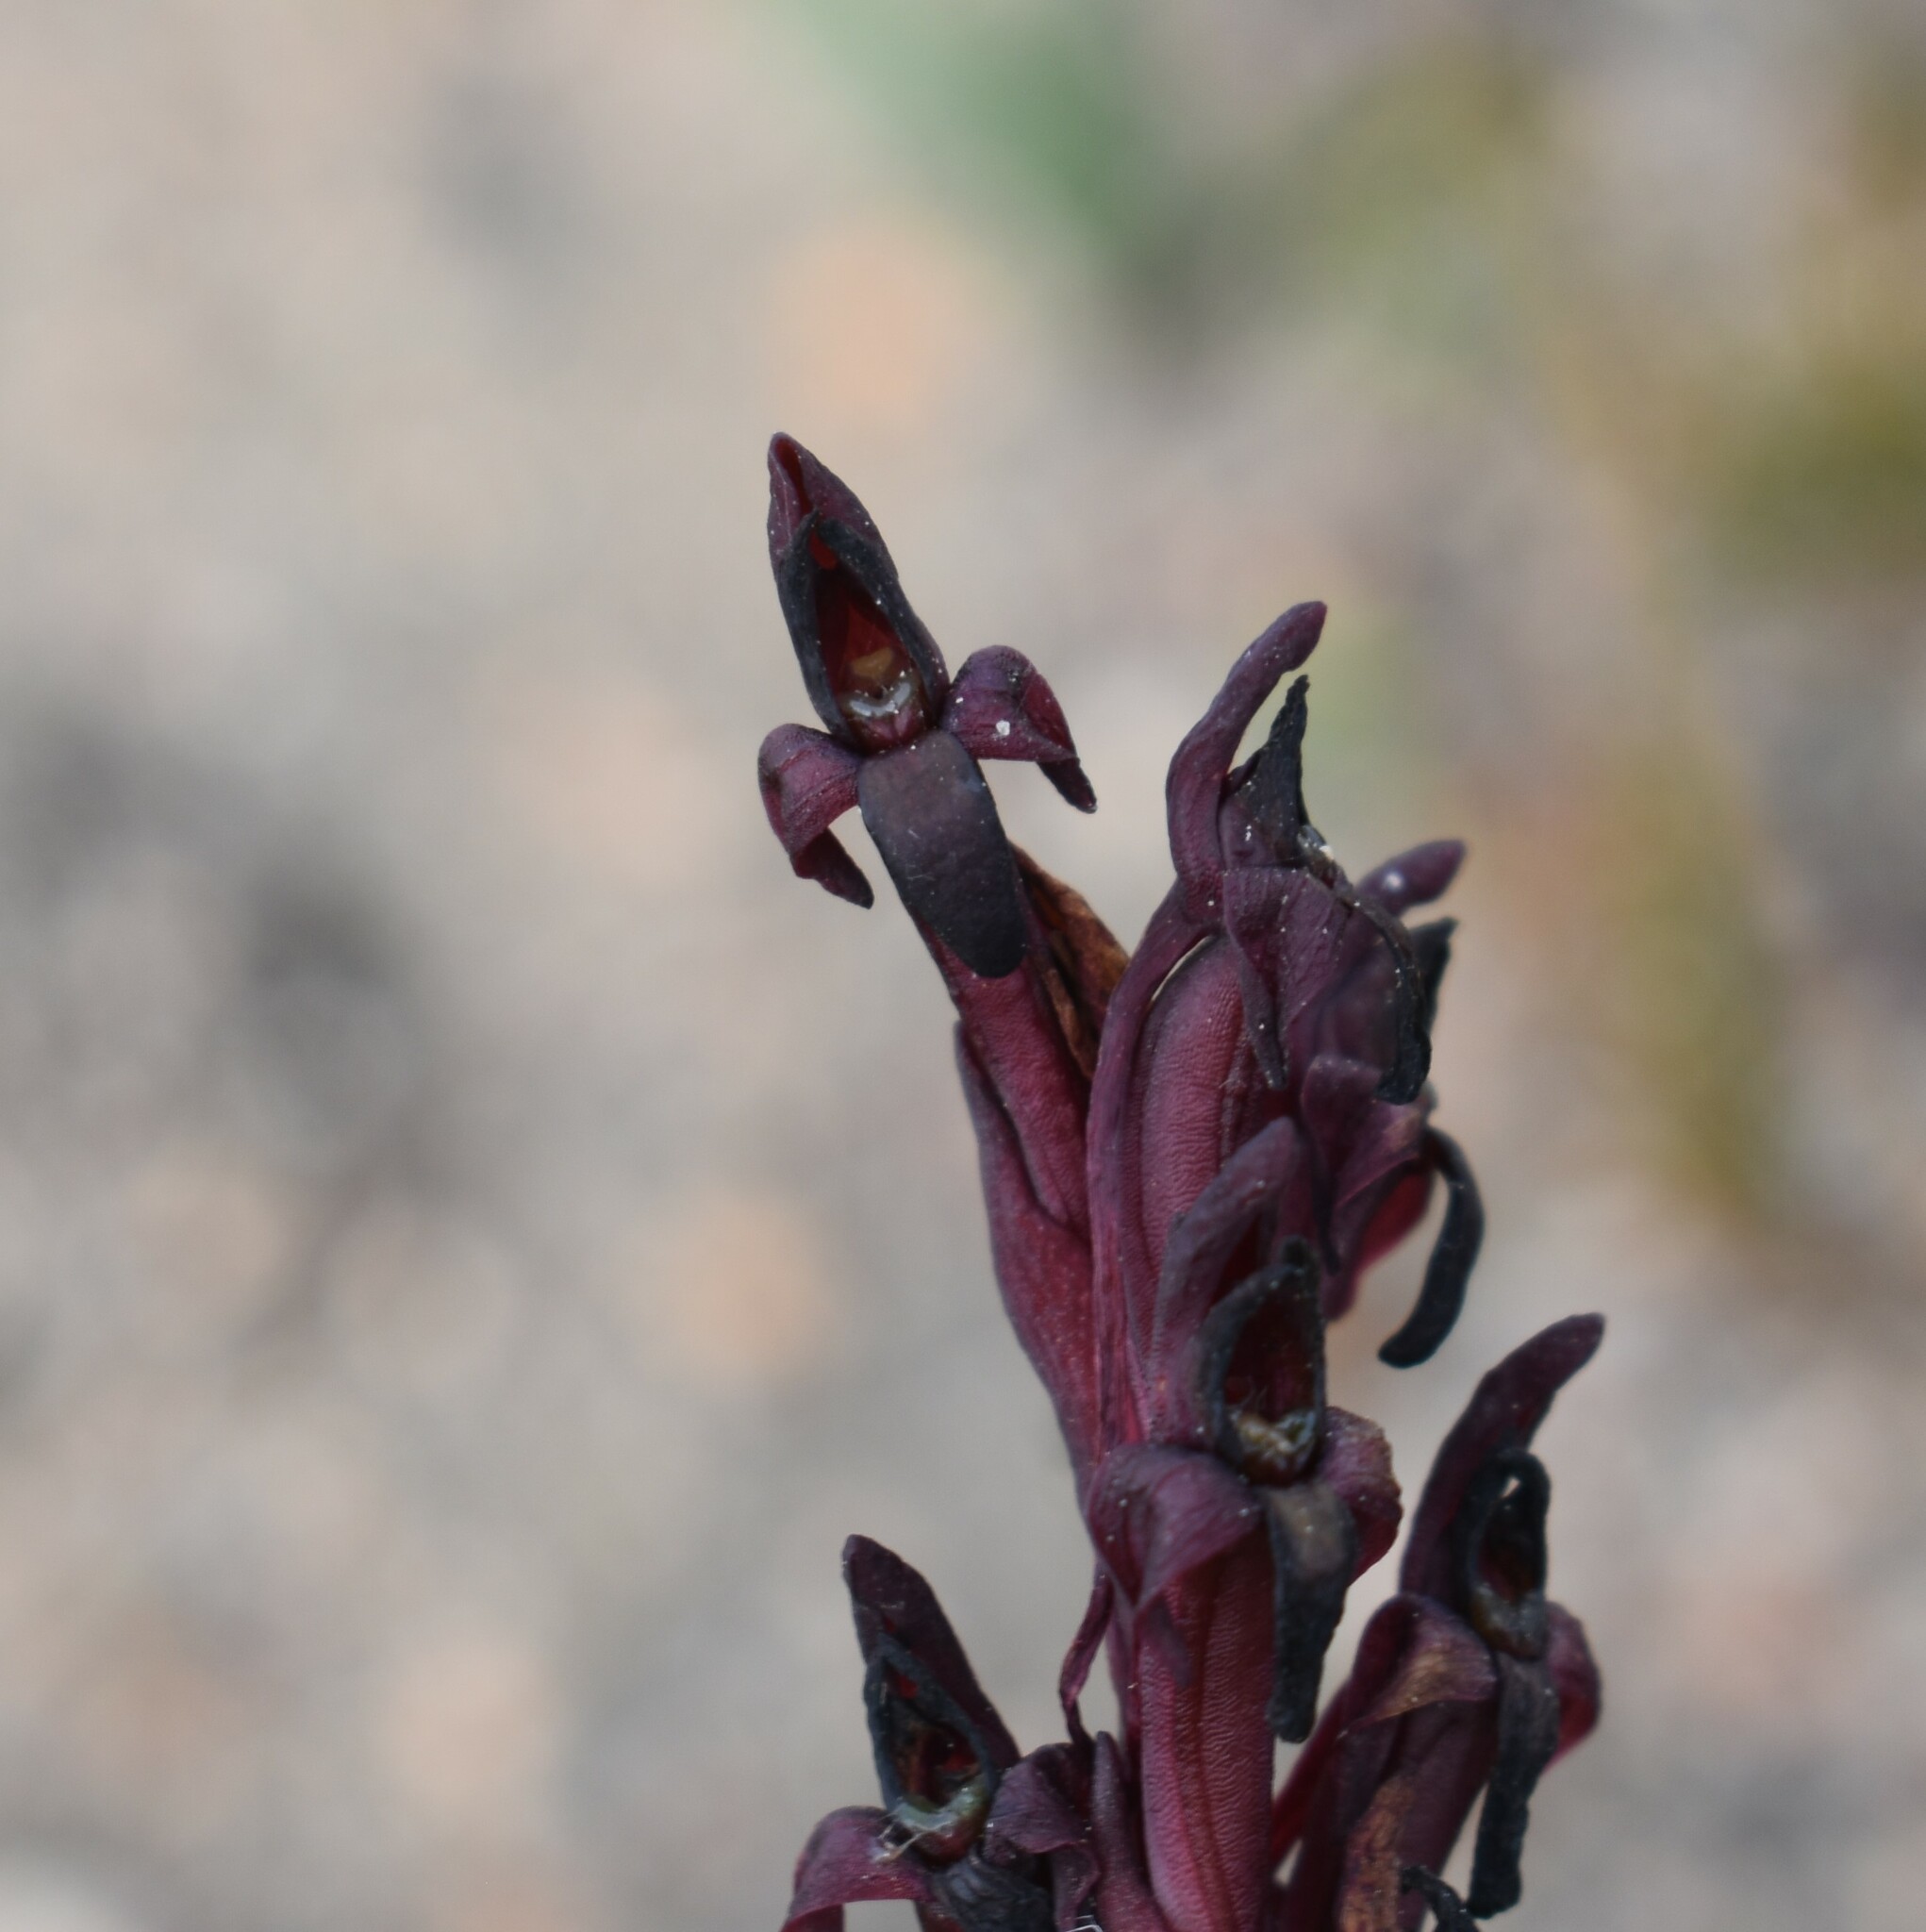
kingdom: Plantae
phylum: Tracheophyta
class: Liliopsida
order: Asparagales
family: Orchidaceae
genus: Disa
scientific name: Disa atrorubens
